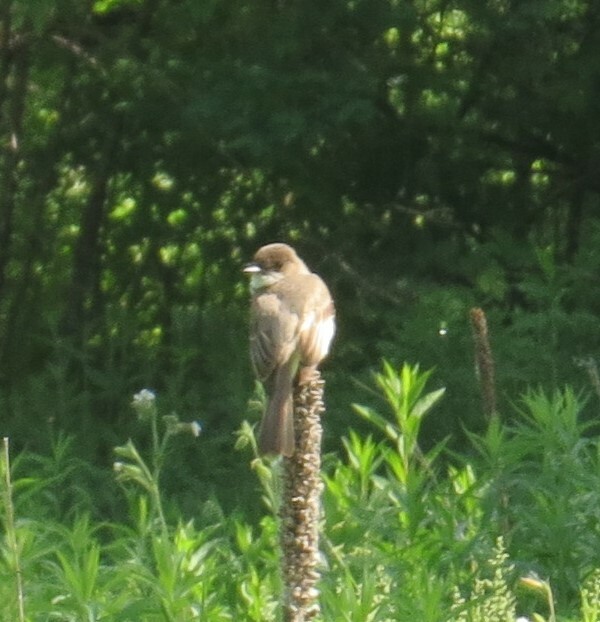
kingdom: Animalia
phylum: Chordata
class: Aves
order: Passeriformes
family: Tyrannidae
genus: Sayornis
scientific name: Sayornis phoebe
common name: Eastern phoebe
